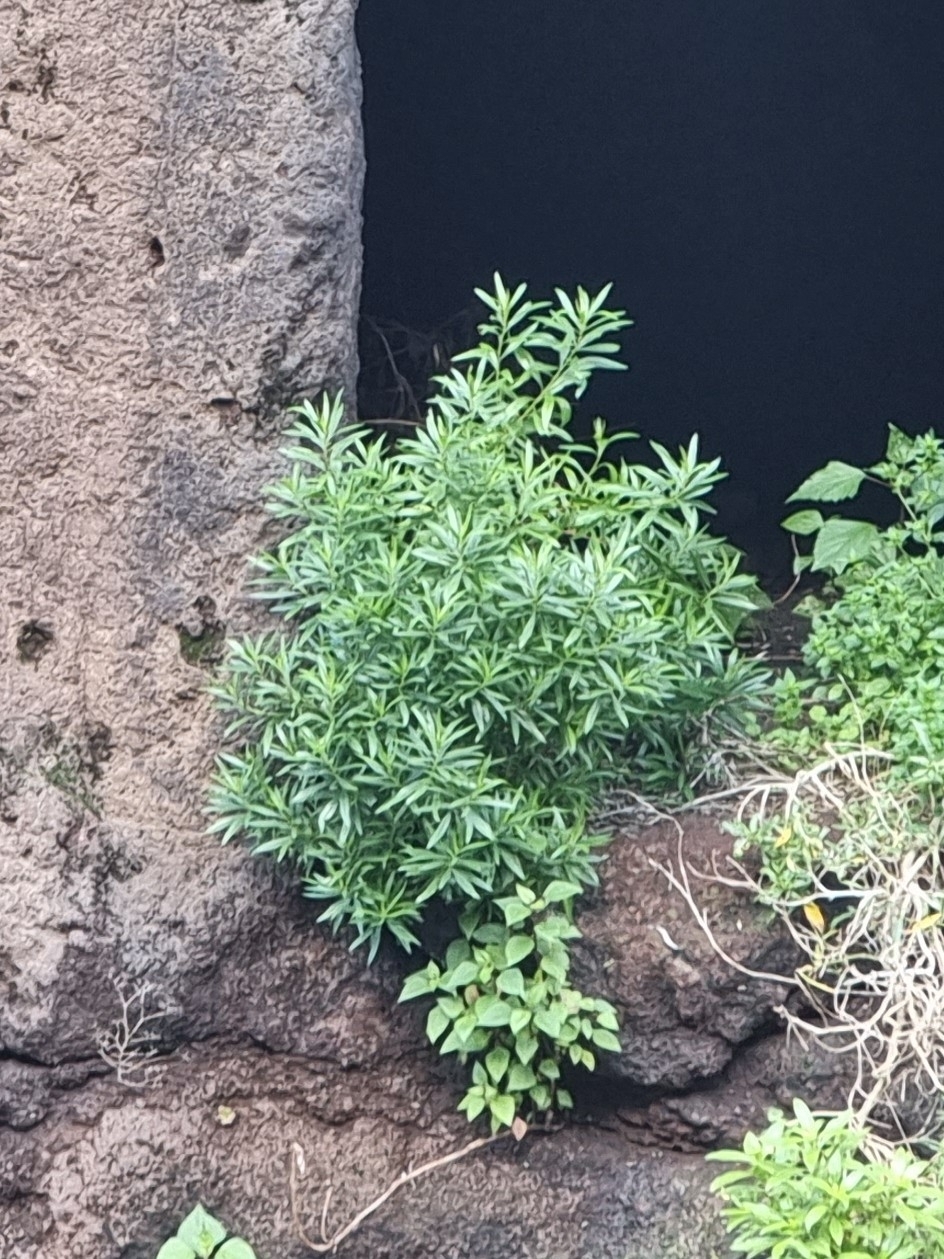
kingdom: Plantae
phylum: Tracheophyta
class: Magnoliopsida
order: Lamiales
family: Plantaginaceae
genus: Globularia
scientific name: Globularia salicina
